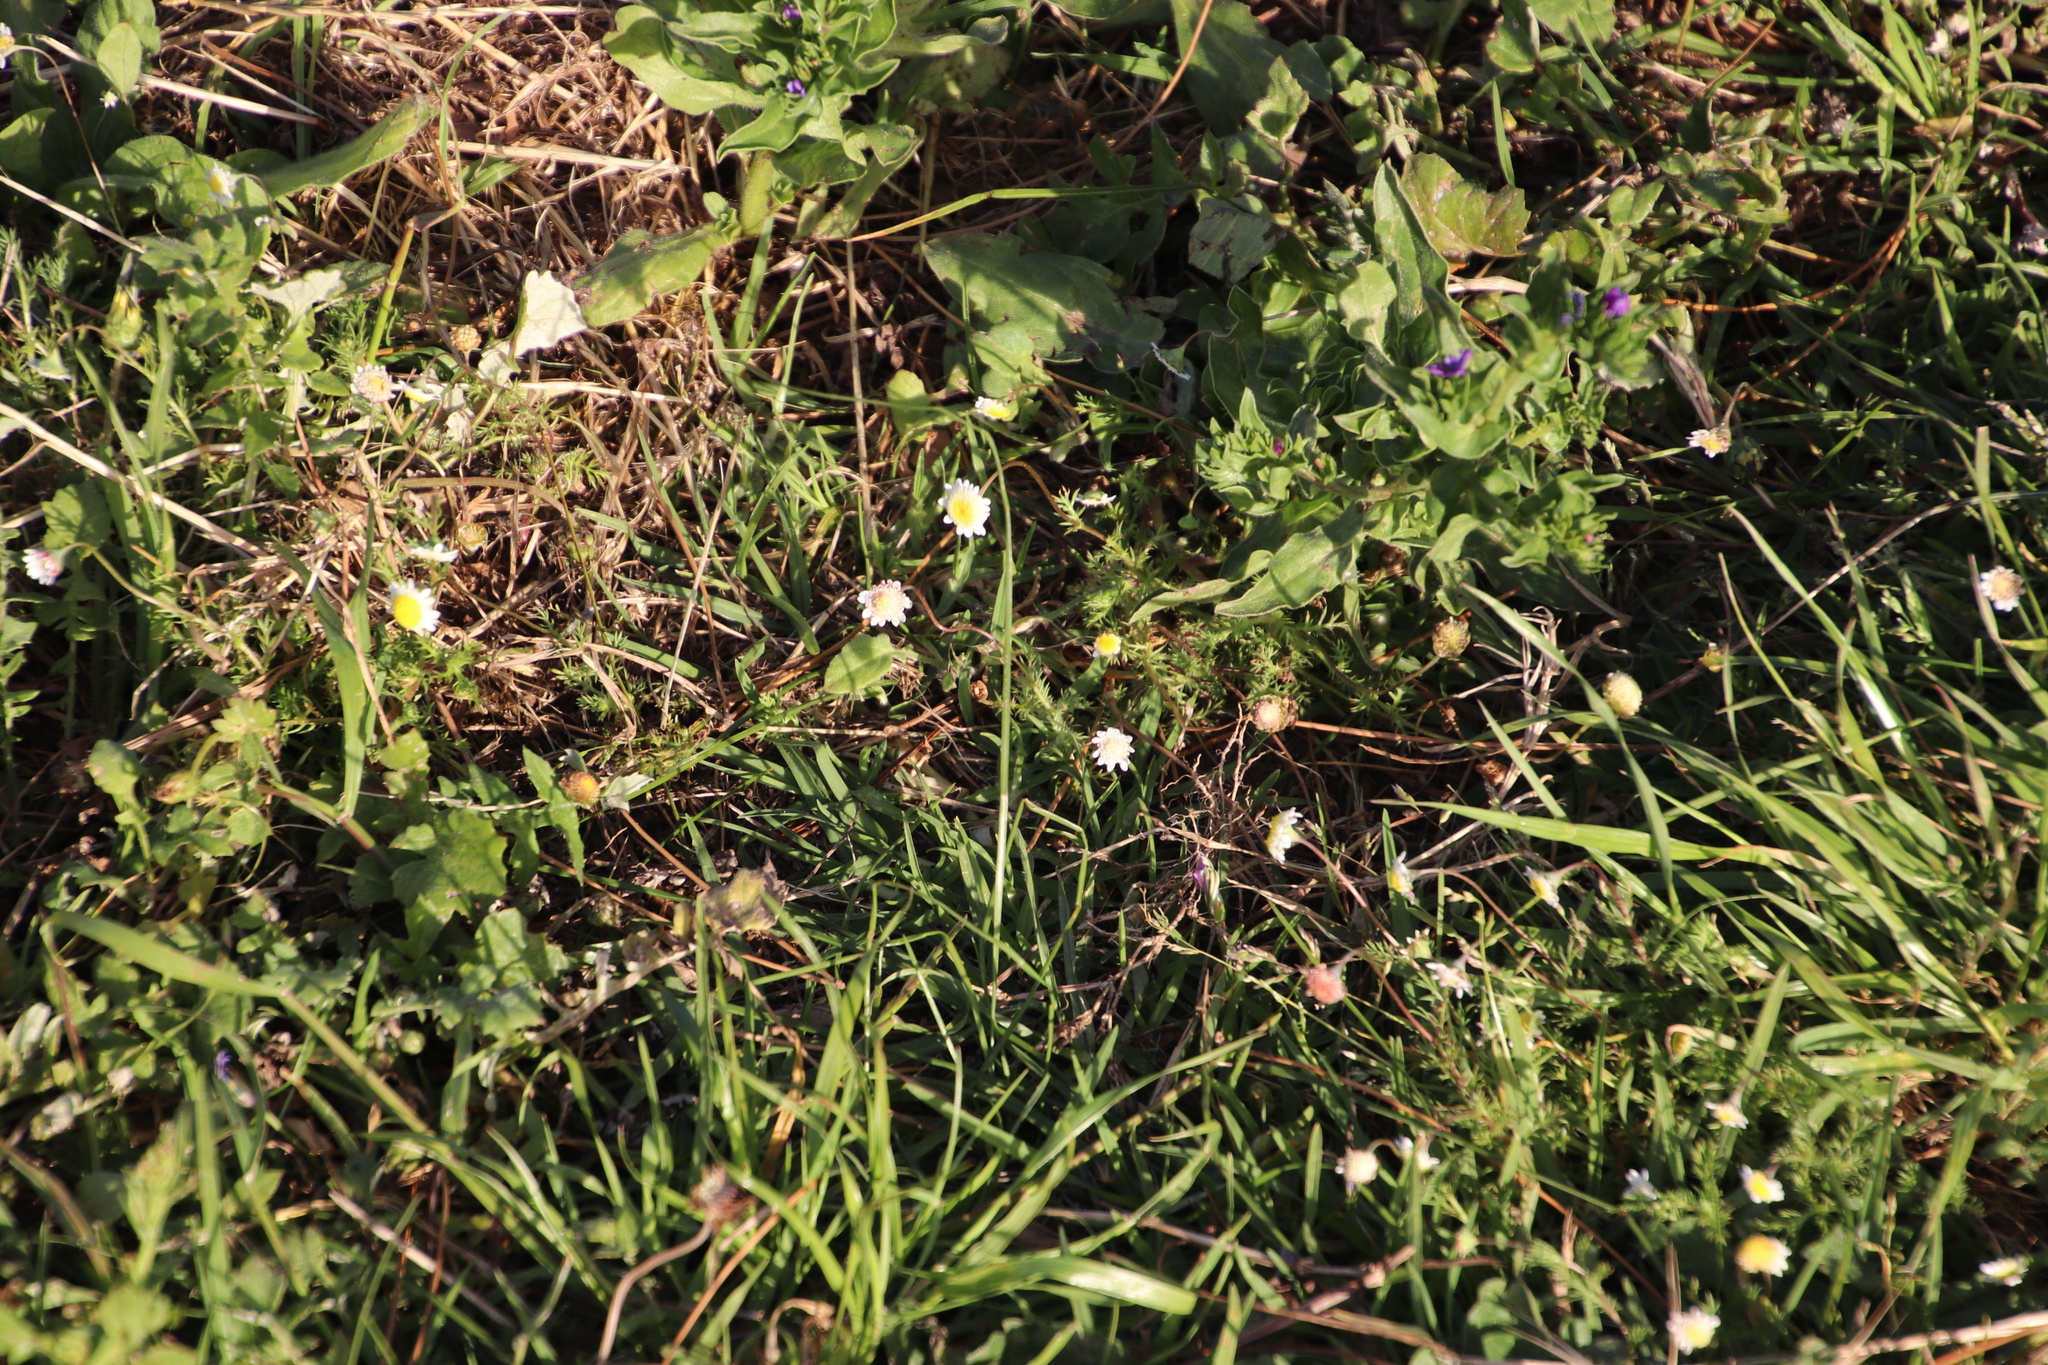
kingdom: Plantae
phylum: Tracheophyta
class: Magnoliopsida
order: Asterales
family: Asteraceae
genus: Cotula
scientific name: Cotula turbinata
